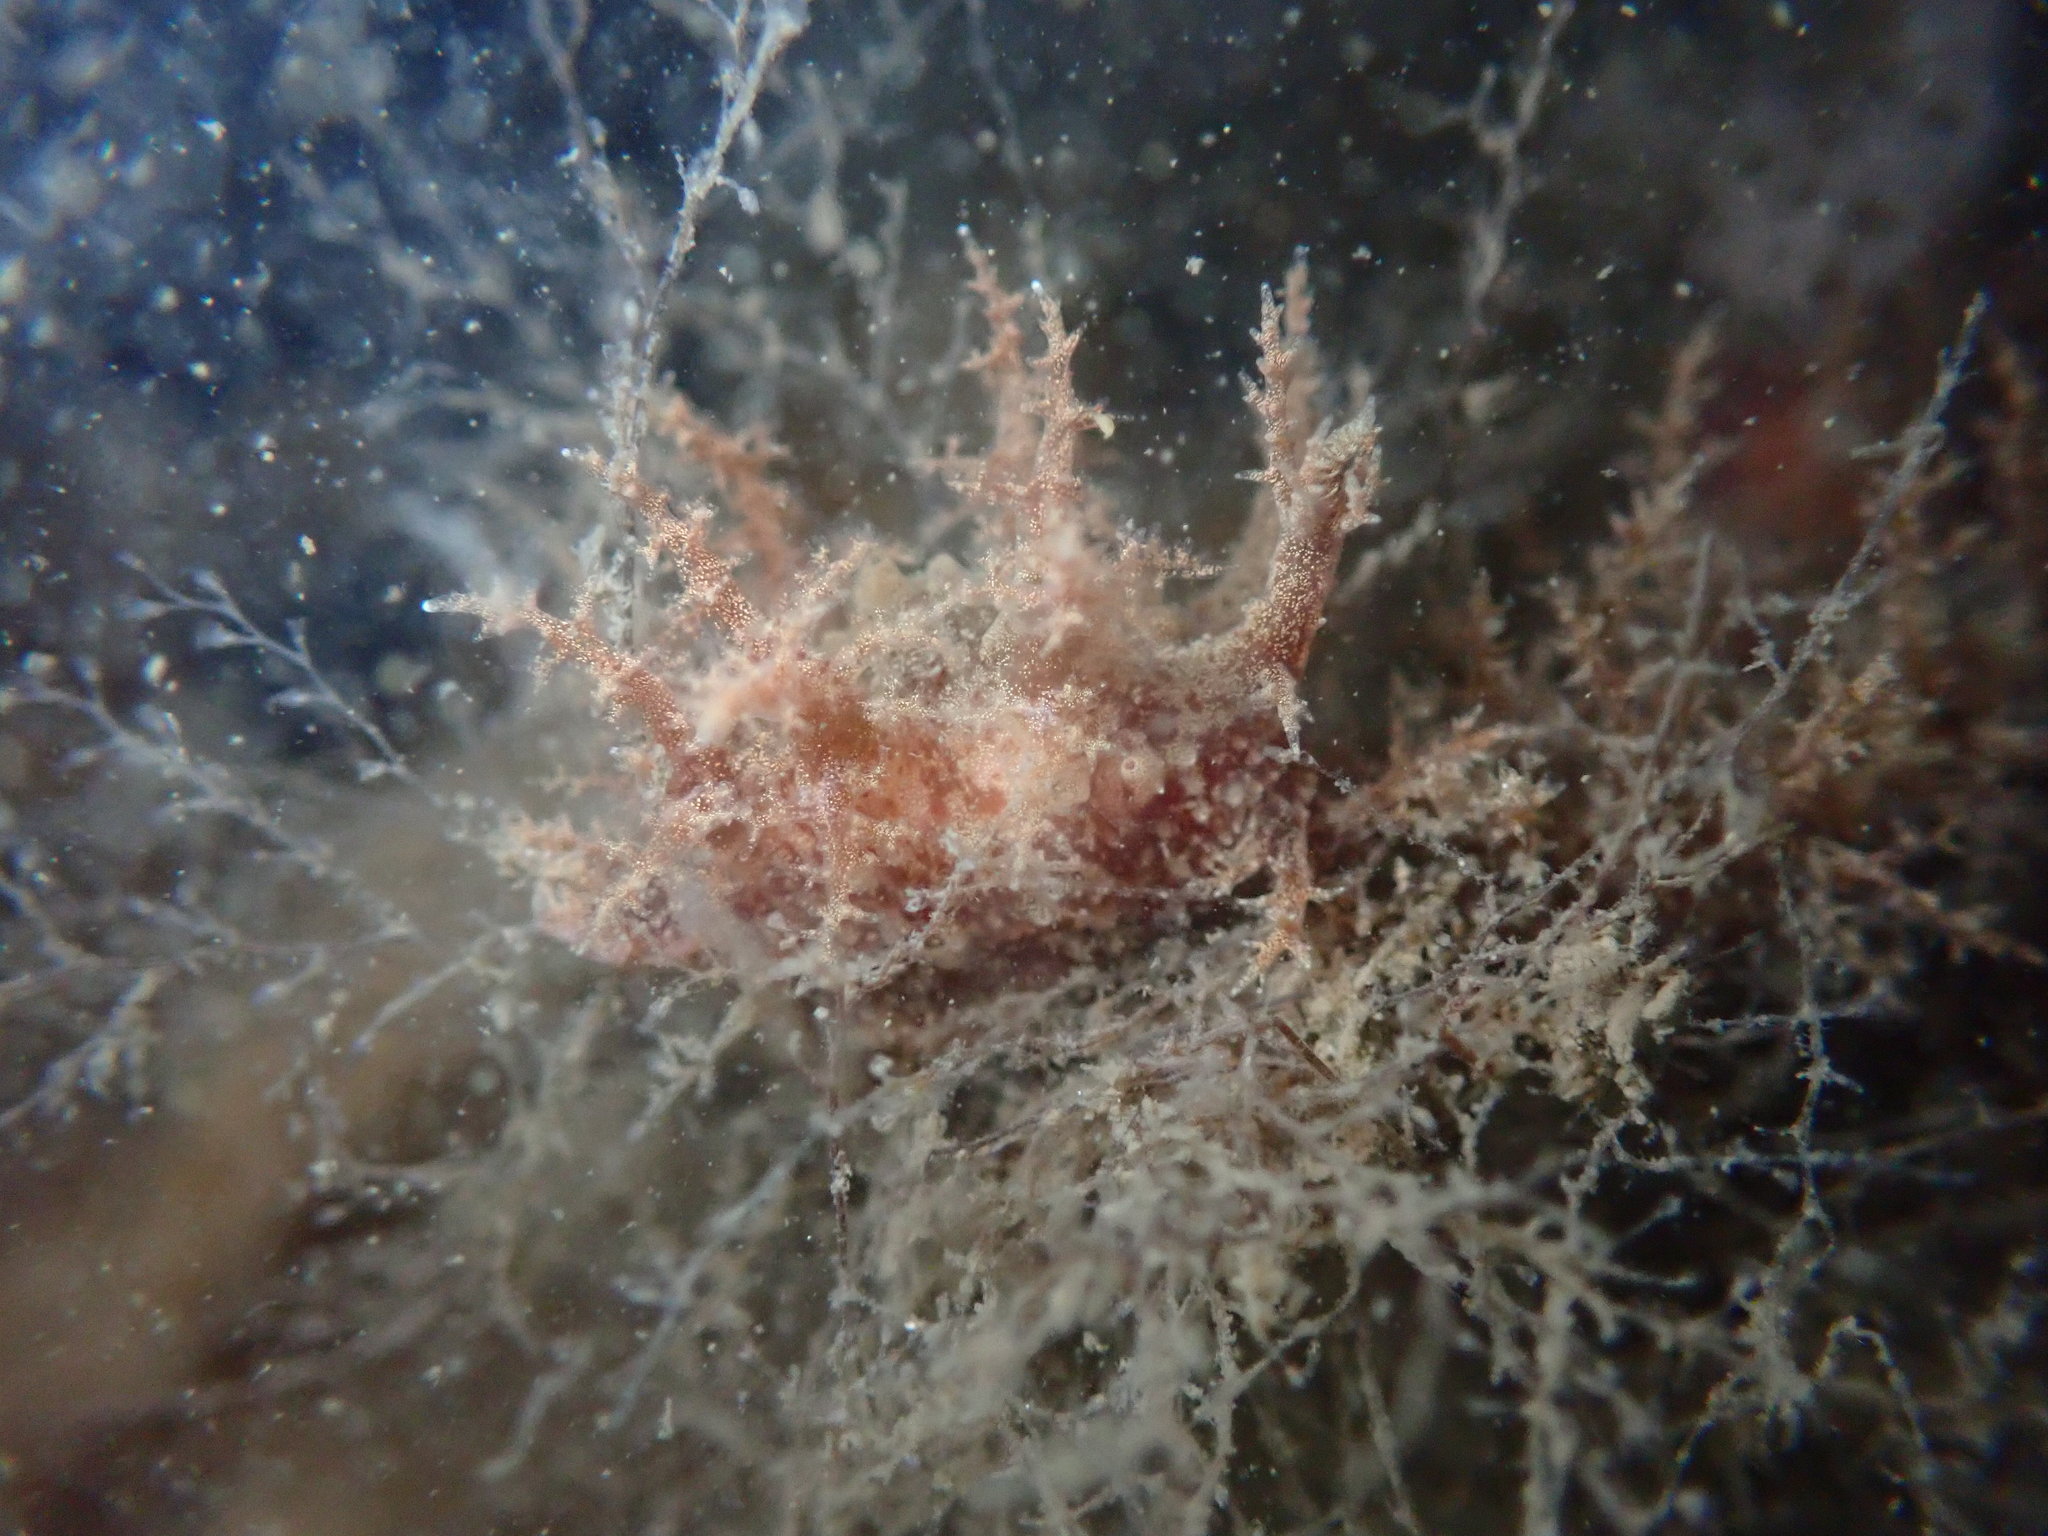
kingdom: Animalia
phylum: Mollusca
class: Gastropoda
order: Nudibranchia
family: Dendronotidae
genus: Dendronotus
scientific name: Dendronotus venustus
